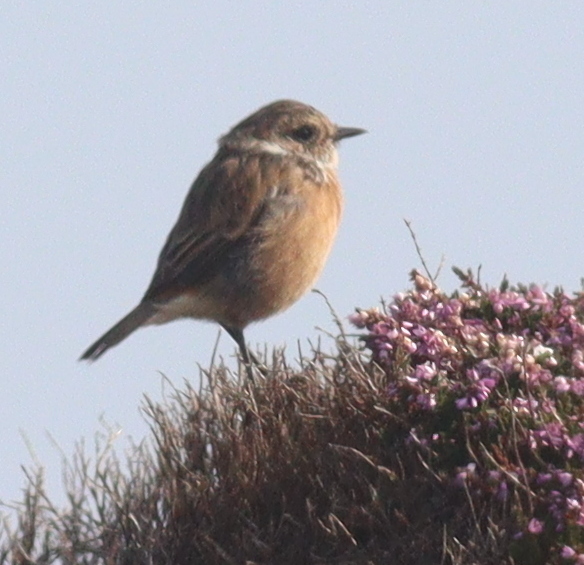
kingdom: Animalia
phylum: Chordata
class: Aves
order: Passeriformes
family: Muscicapidae
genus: Saxicola
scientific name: Saxicola rubicola
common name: European stonechat
